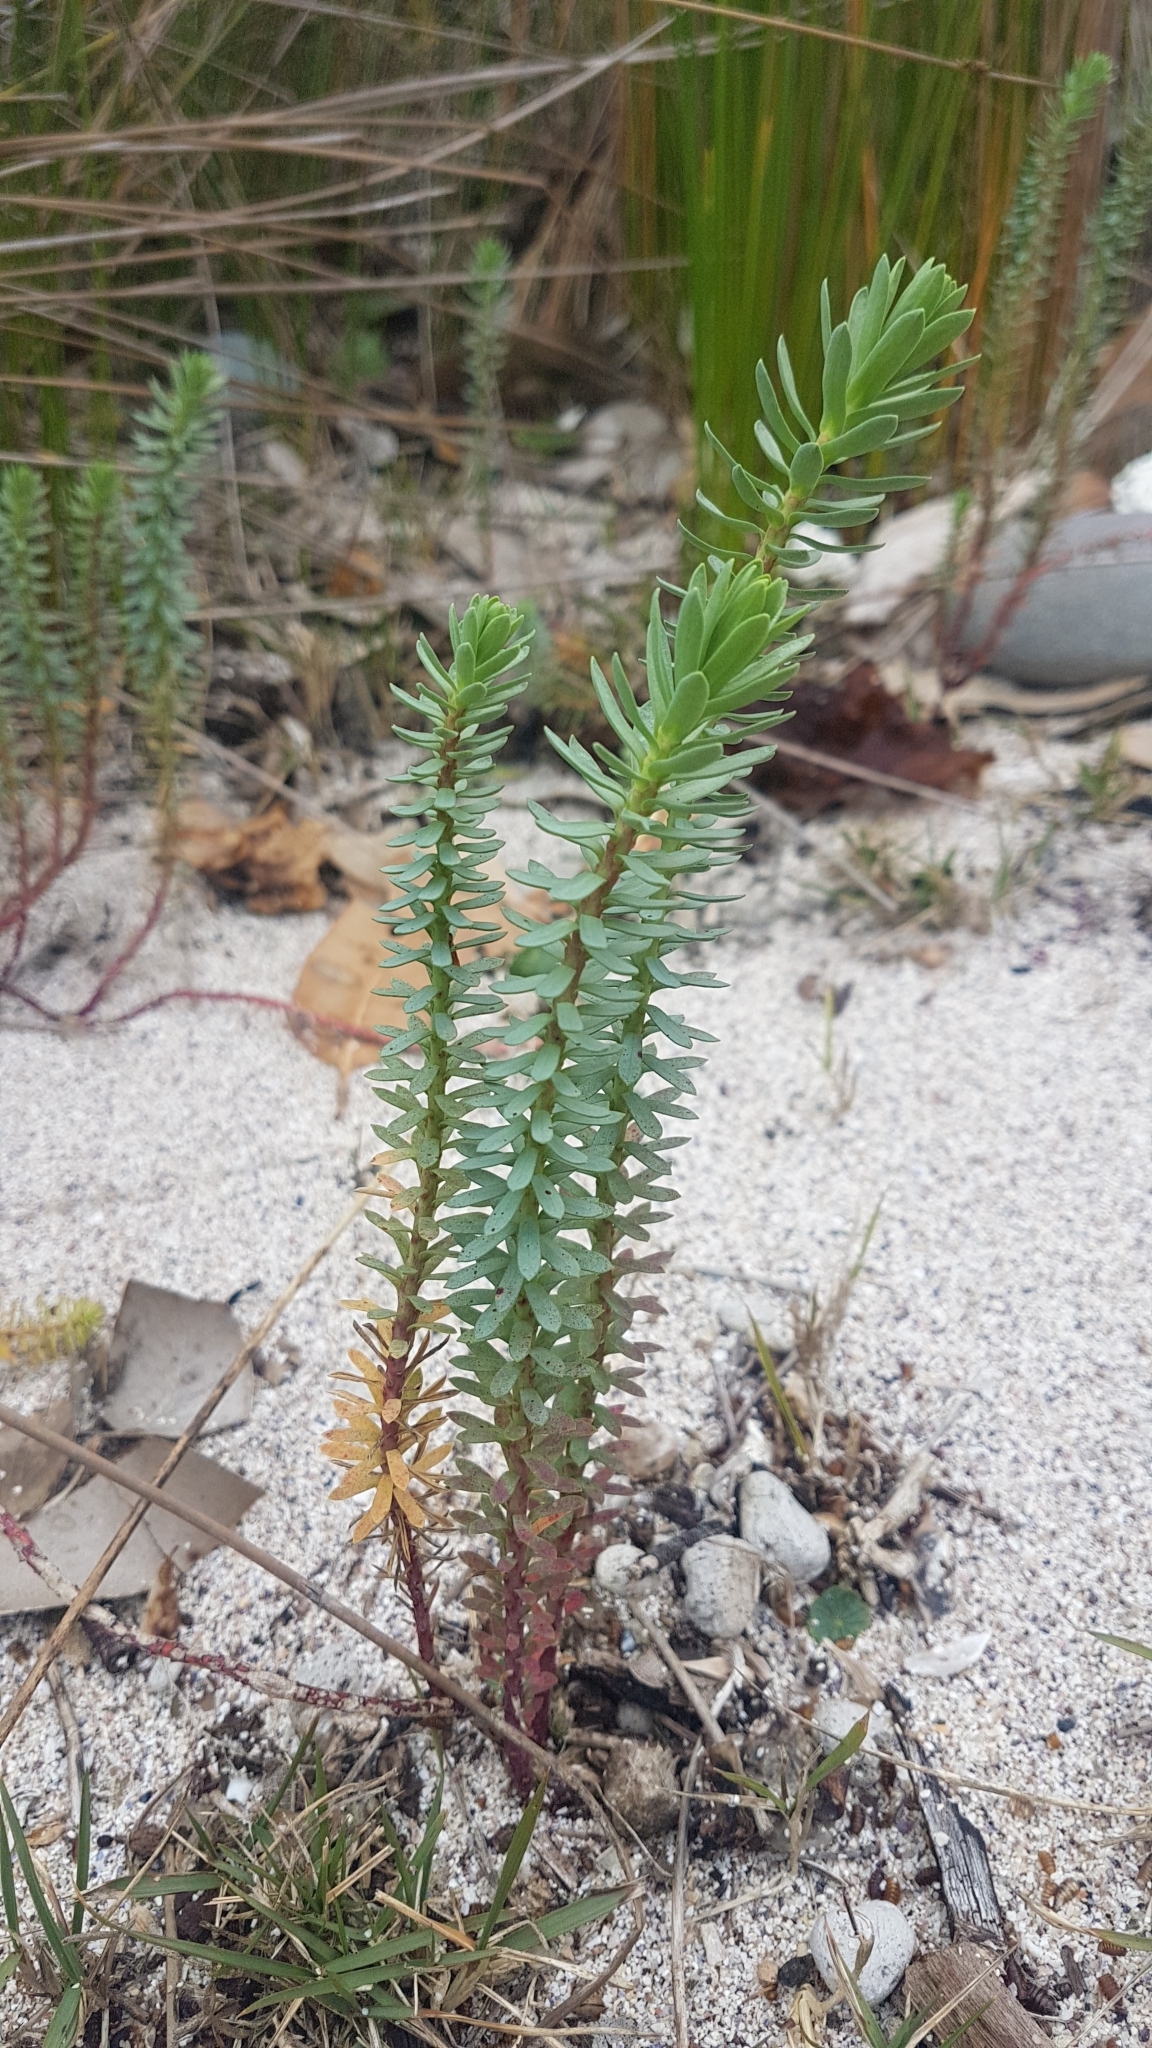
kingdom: Plantae
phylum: Tracheophyta
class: Magnoliopsida
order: Malpighiales
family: Euphorbiaceae
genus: Euphorbia
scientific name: Euphorbia paralias
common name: Sea spurge
